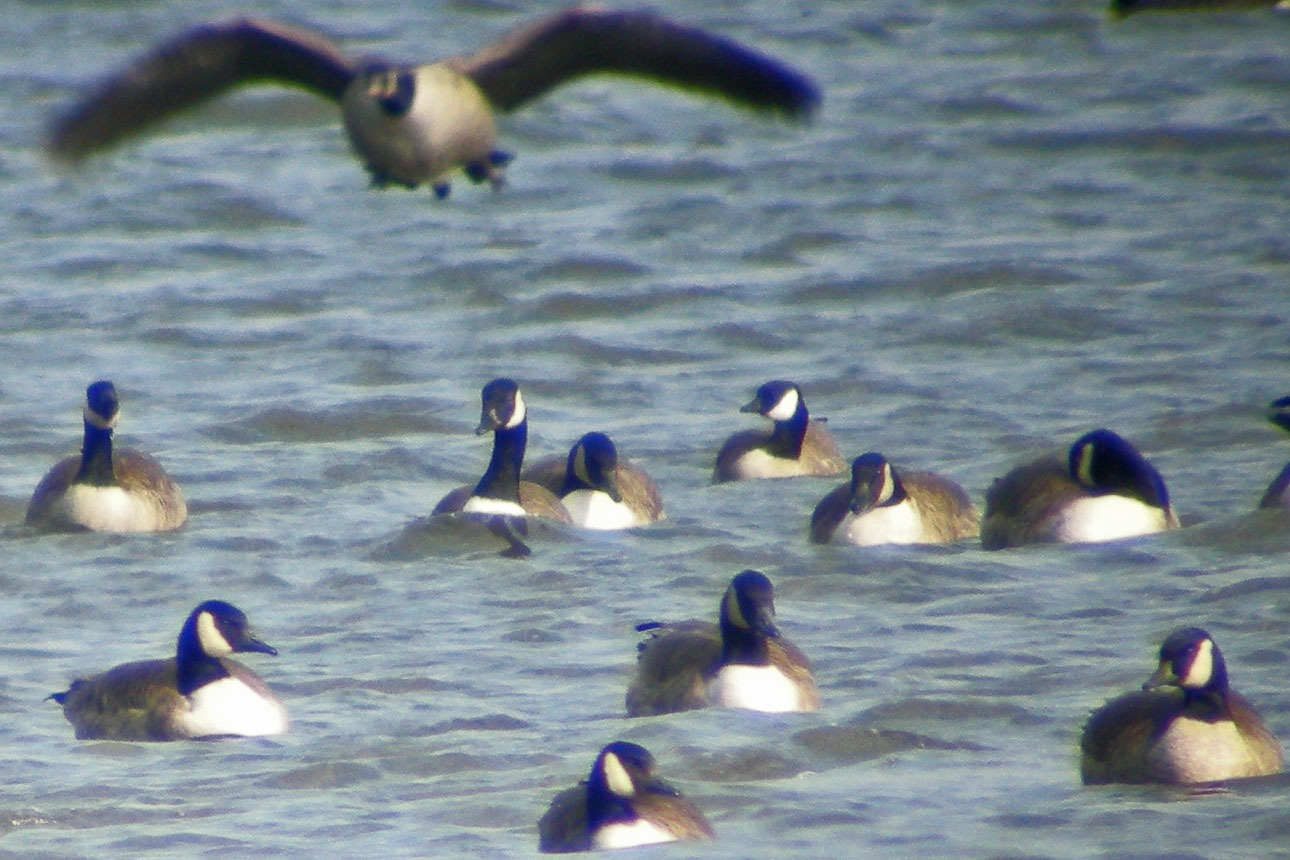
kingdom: Animalia
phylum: Chordata
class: Aves
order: Anseriformes
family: Anatidae
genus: Branta
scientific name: Branta hutchinsii
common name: Cackling goose
